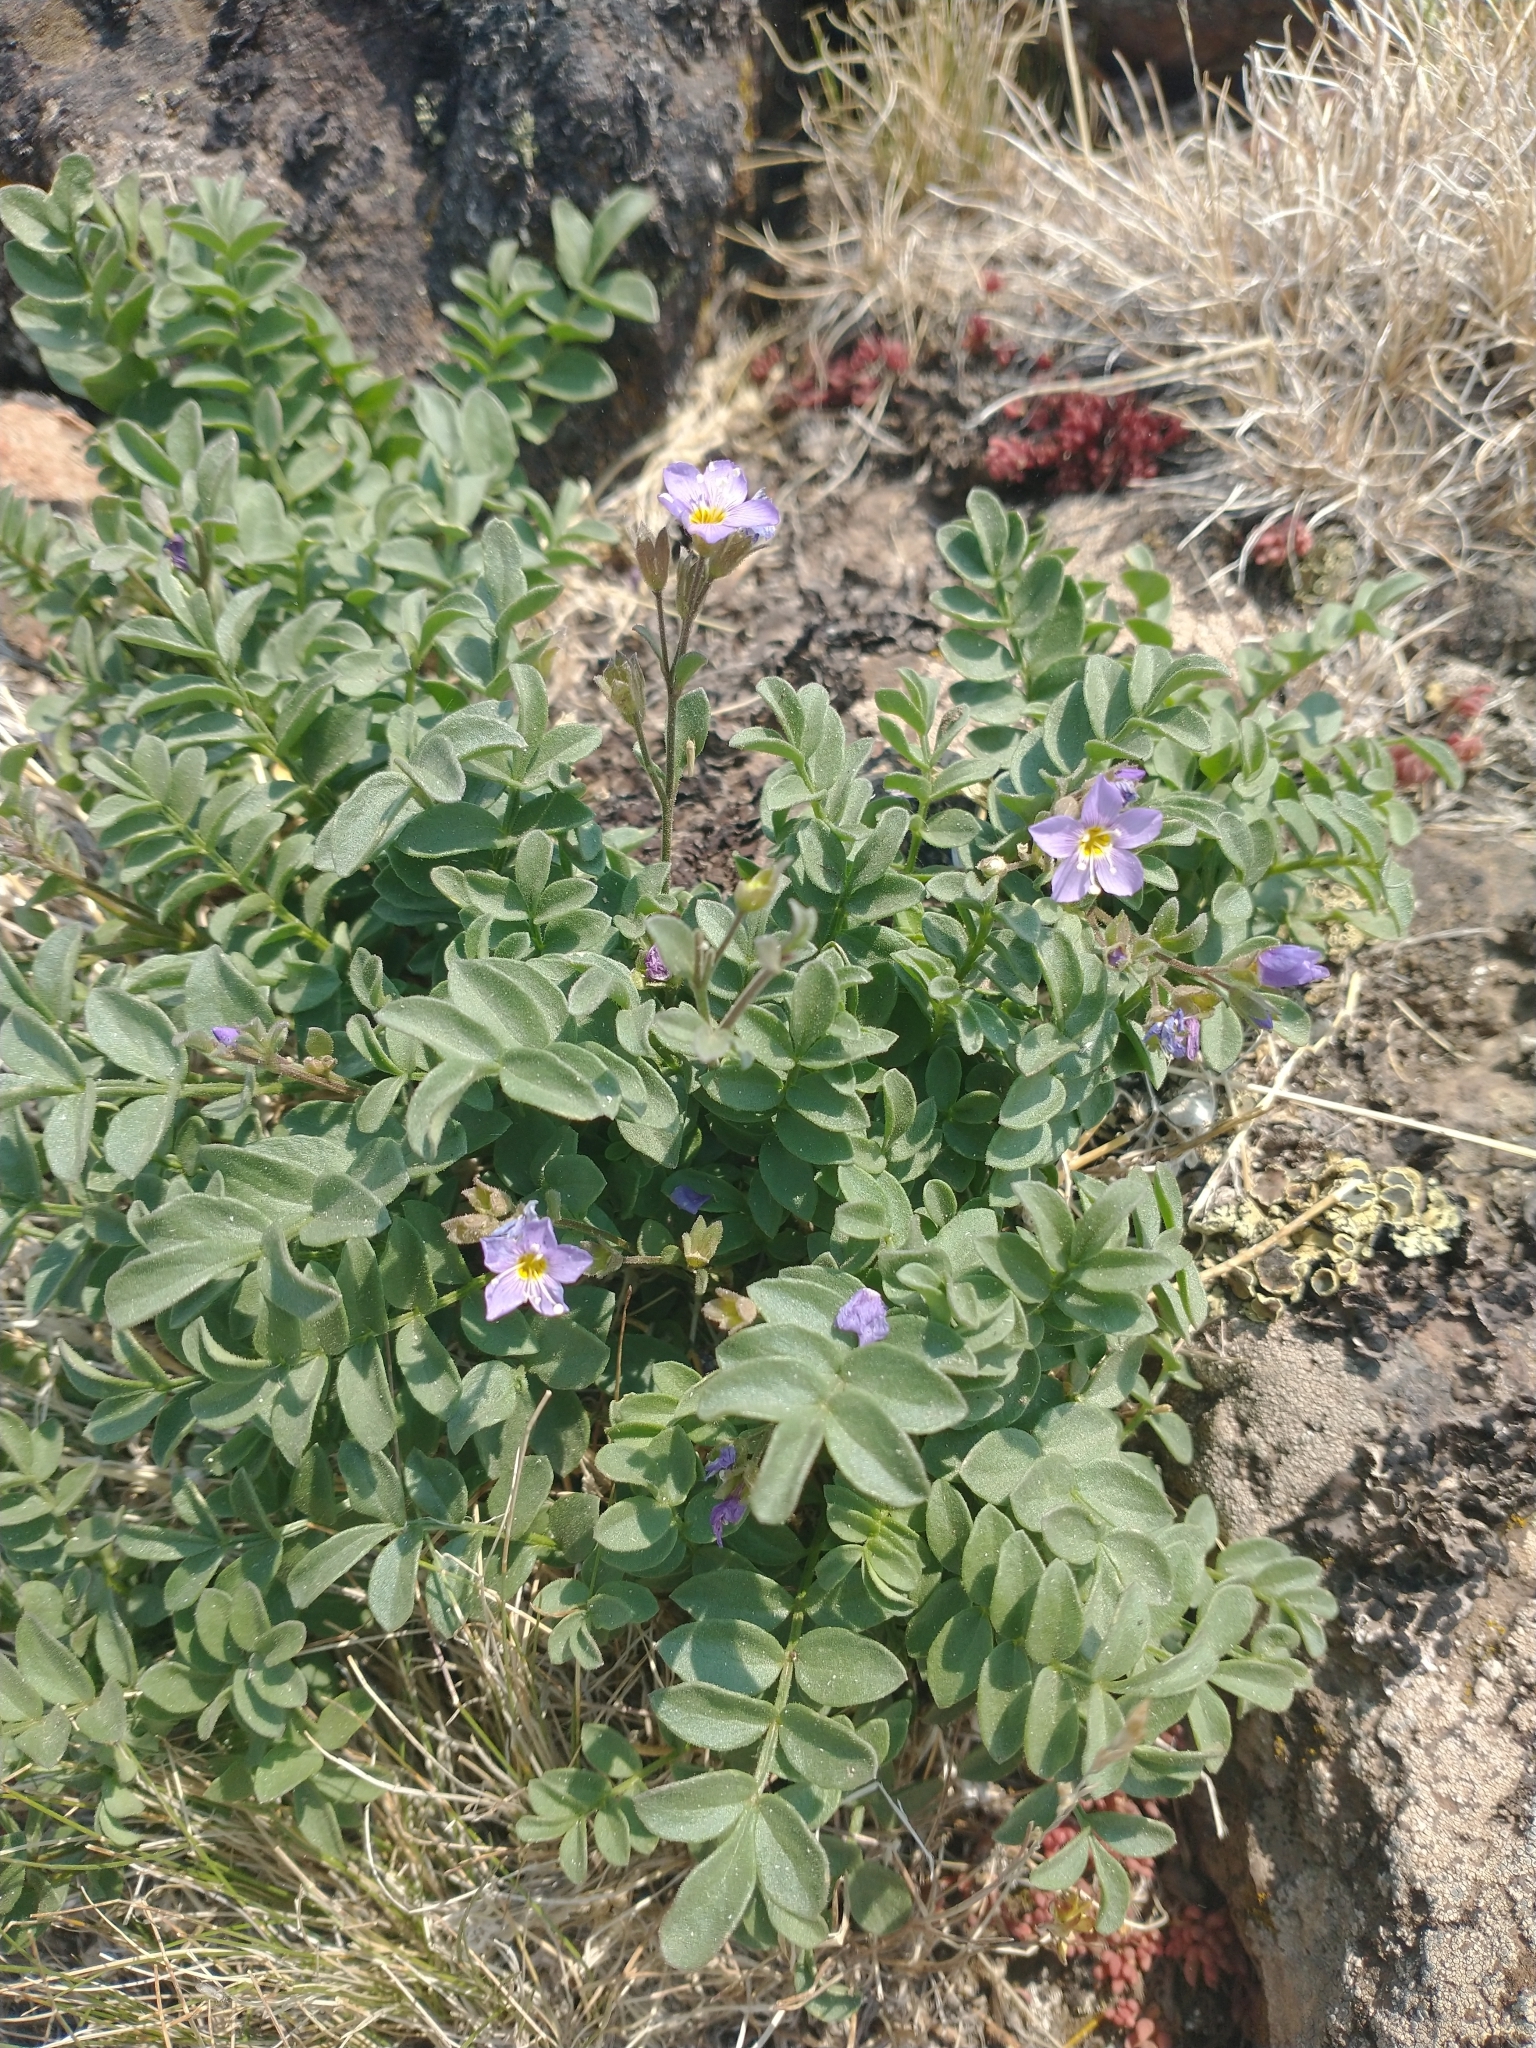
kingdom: Plantae
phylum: Tracheophyta
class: Magnoliopsida
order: Ericales
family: Polemoniaceae
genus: Polemonium
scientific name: Polemonium pulcherrimum
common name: Short jacob's-ladder
